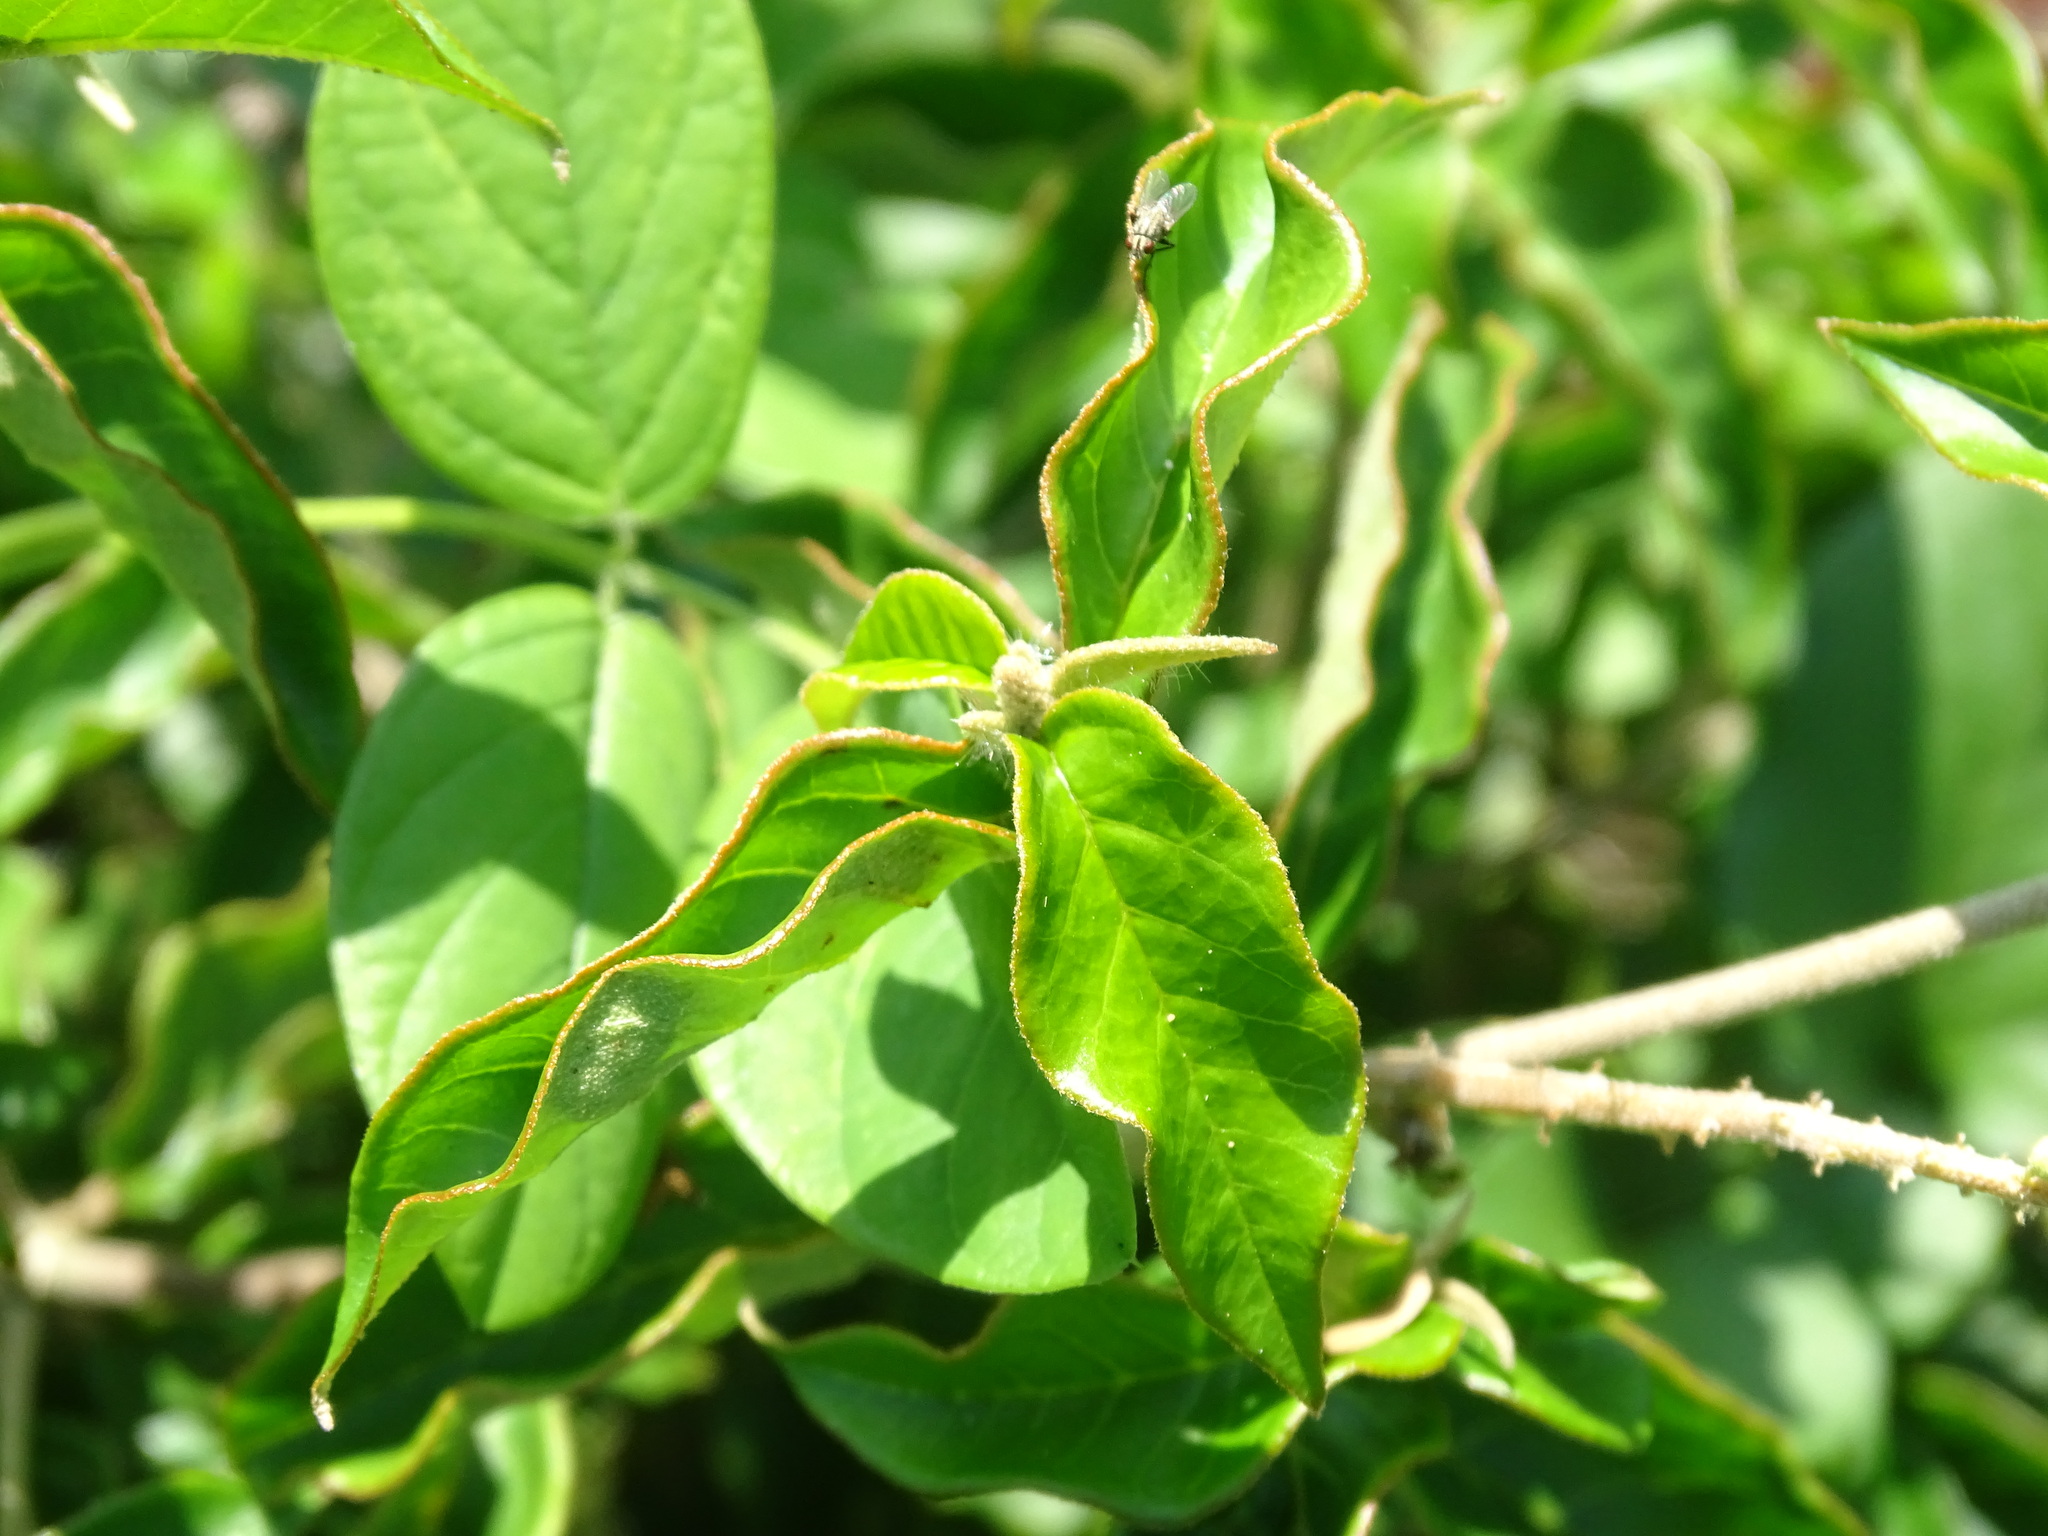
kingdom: Plantae
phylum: Tracheophyta
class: Magnoliopsida
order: Malpighiales
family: Euphorbiaceae
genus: Croton
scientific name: Croton cortesianus
